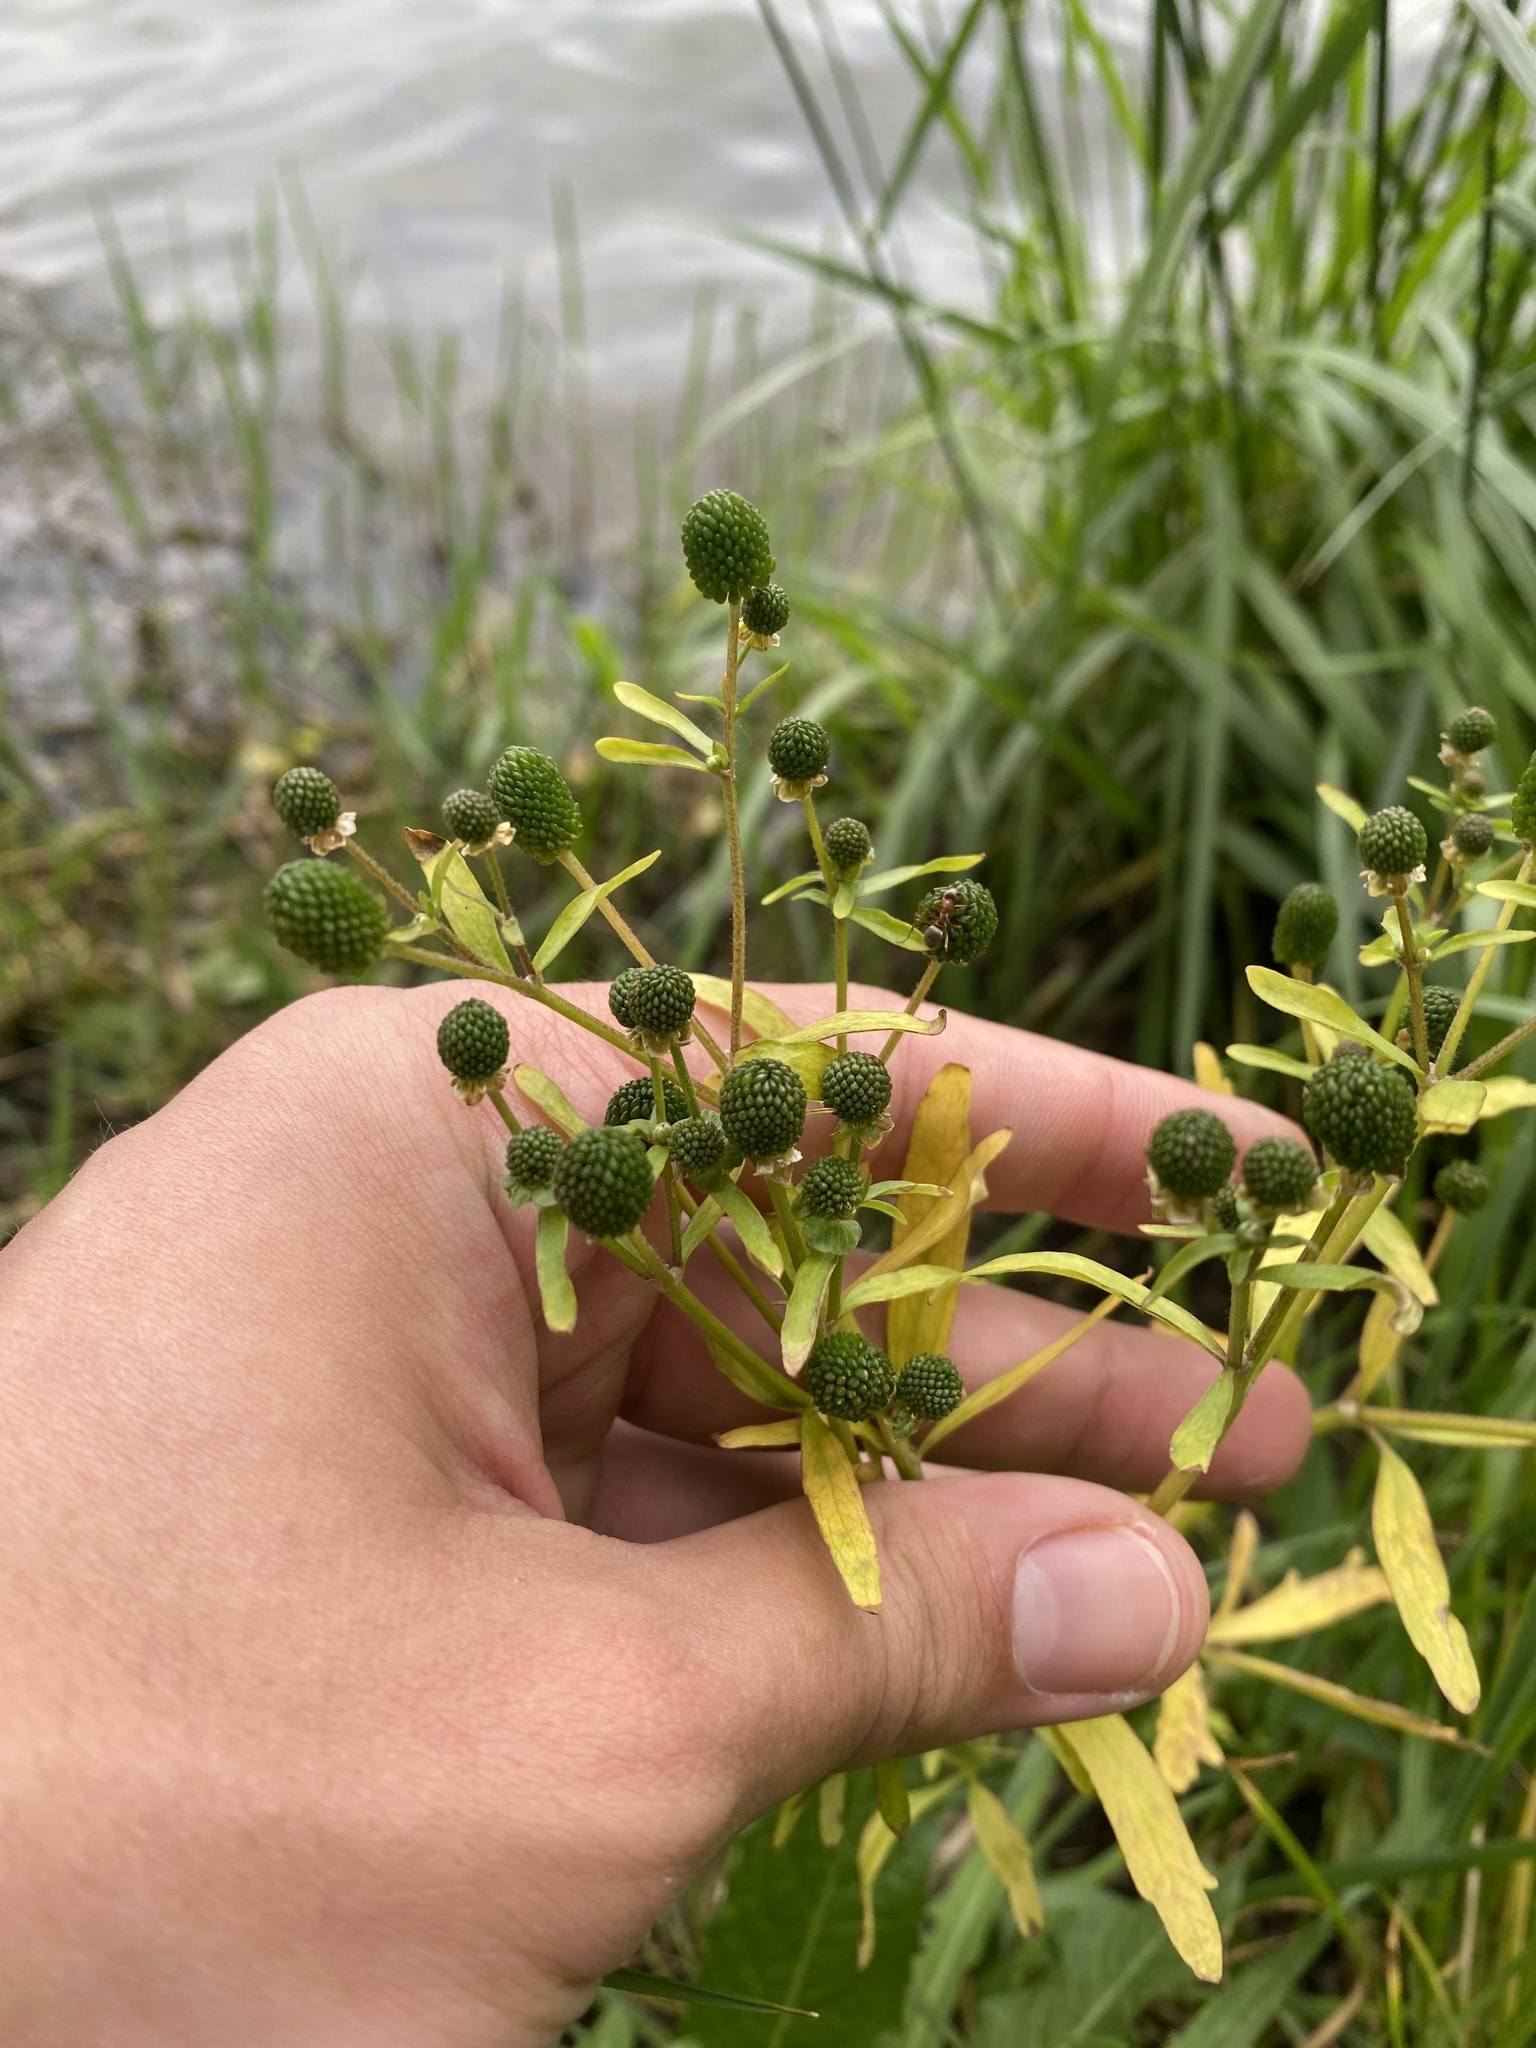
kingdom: Plantae
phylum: Tracheophyta
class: Magnoliopsida
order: Ranunculales
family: Ranunculaceae
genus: Ranunculus
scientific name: Ranunculus sceleratus
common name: Celery-leaved buttercup
